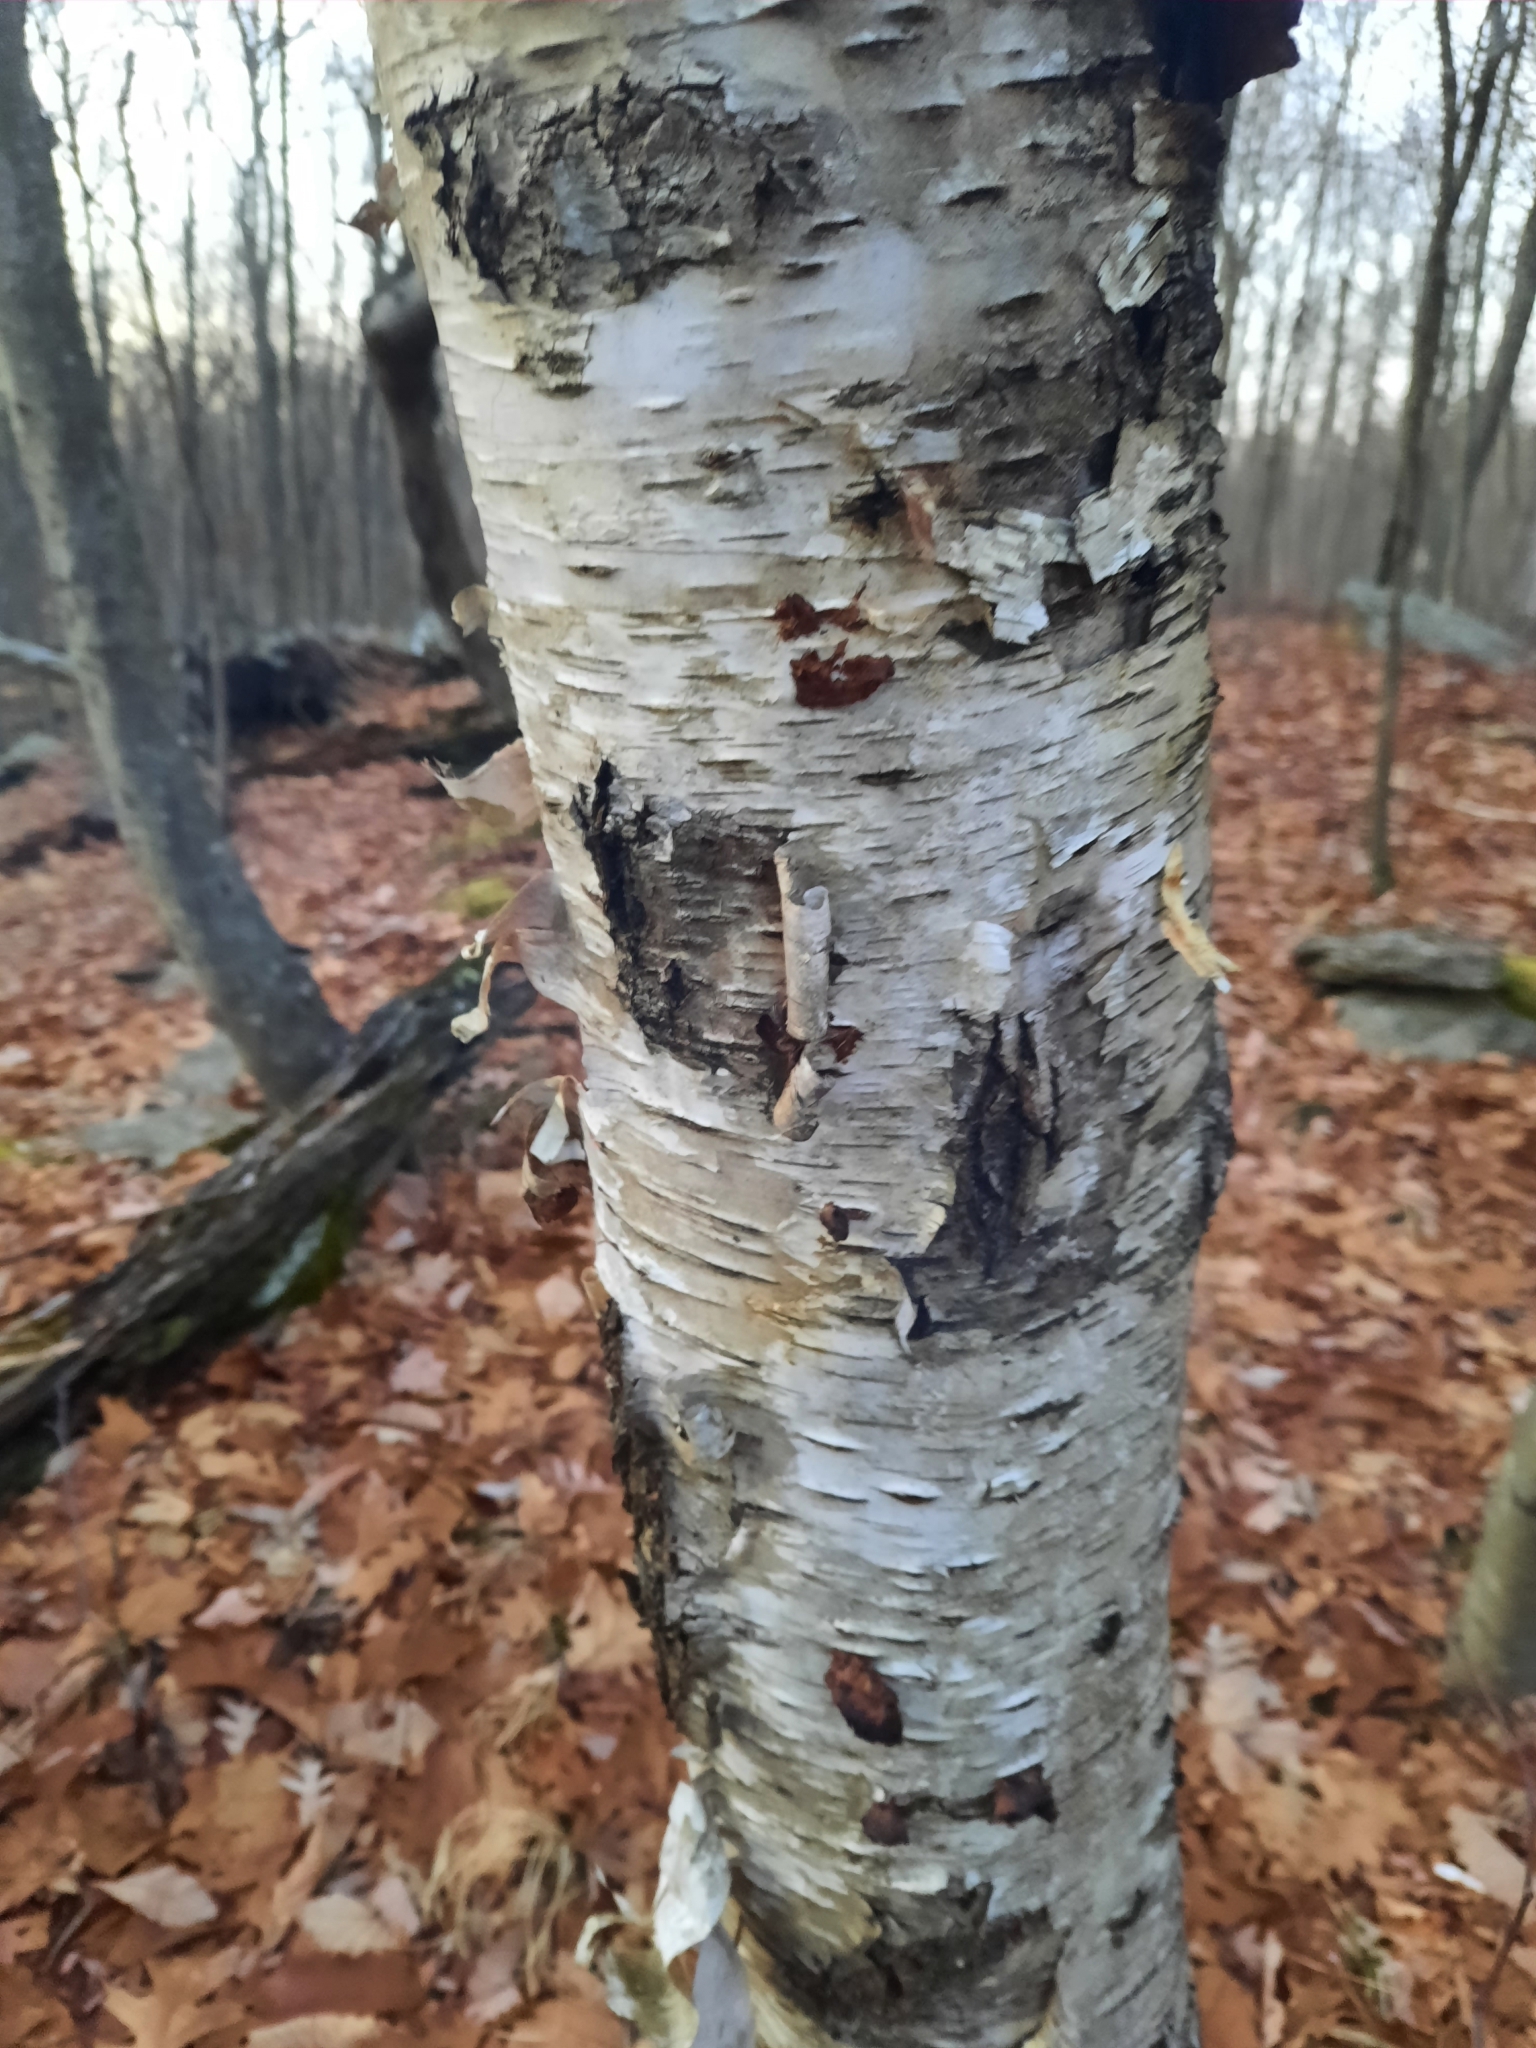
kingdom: Plantae
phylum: Tracheophyta
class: Magnoliopsida
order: Fagales
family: Betulaceae
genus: Betula
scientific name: Betula papyrifera
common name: Paper birch
